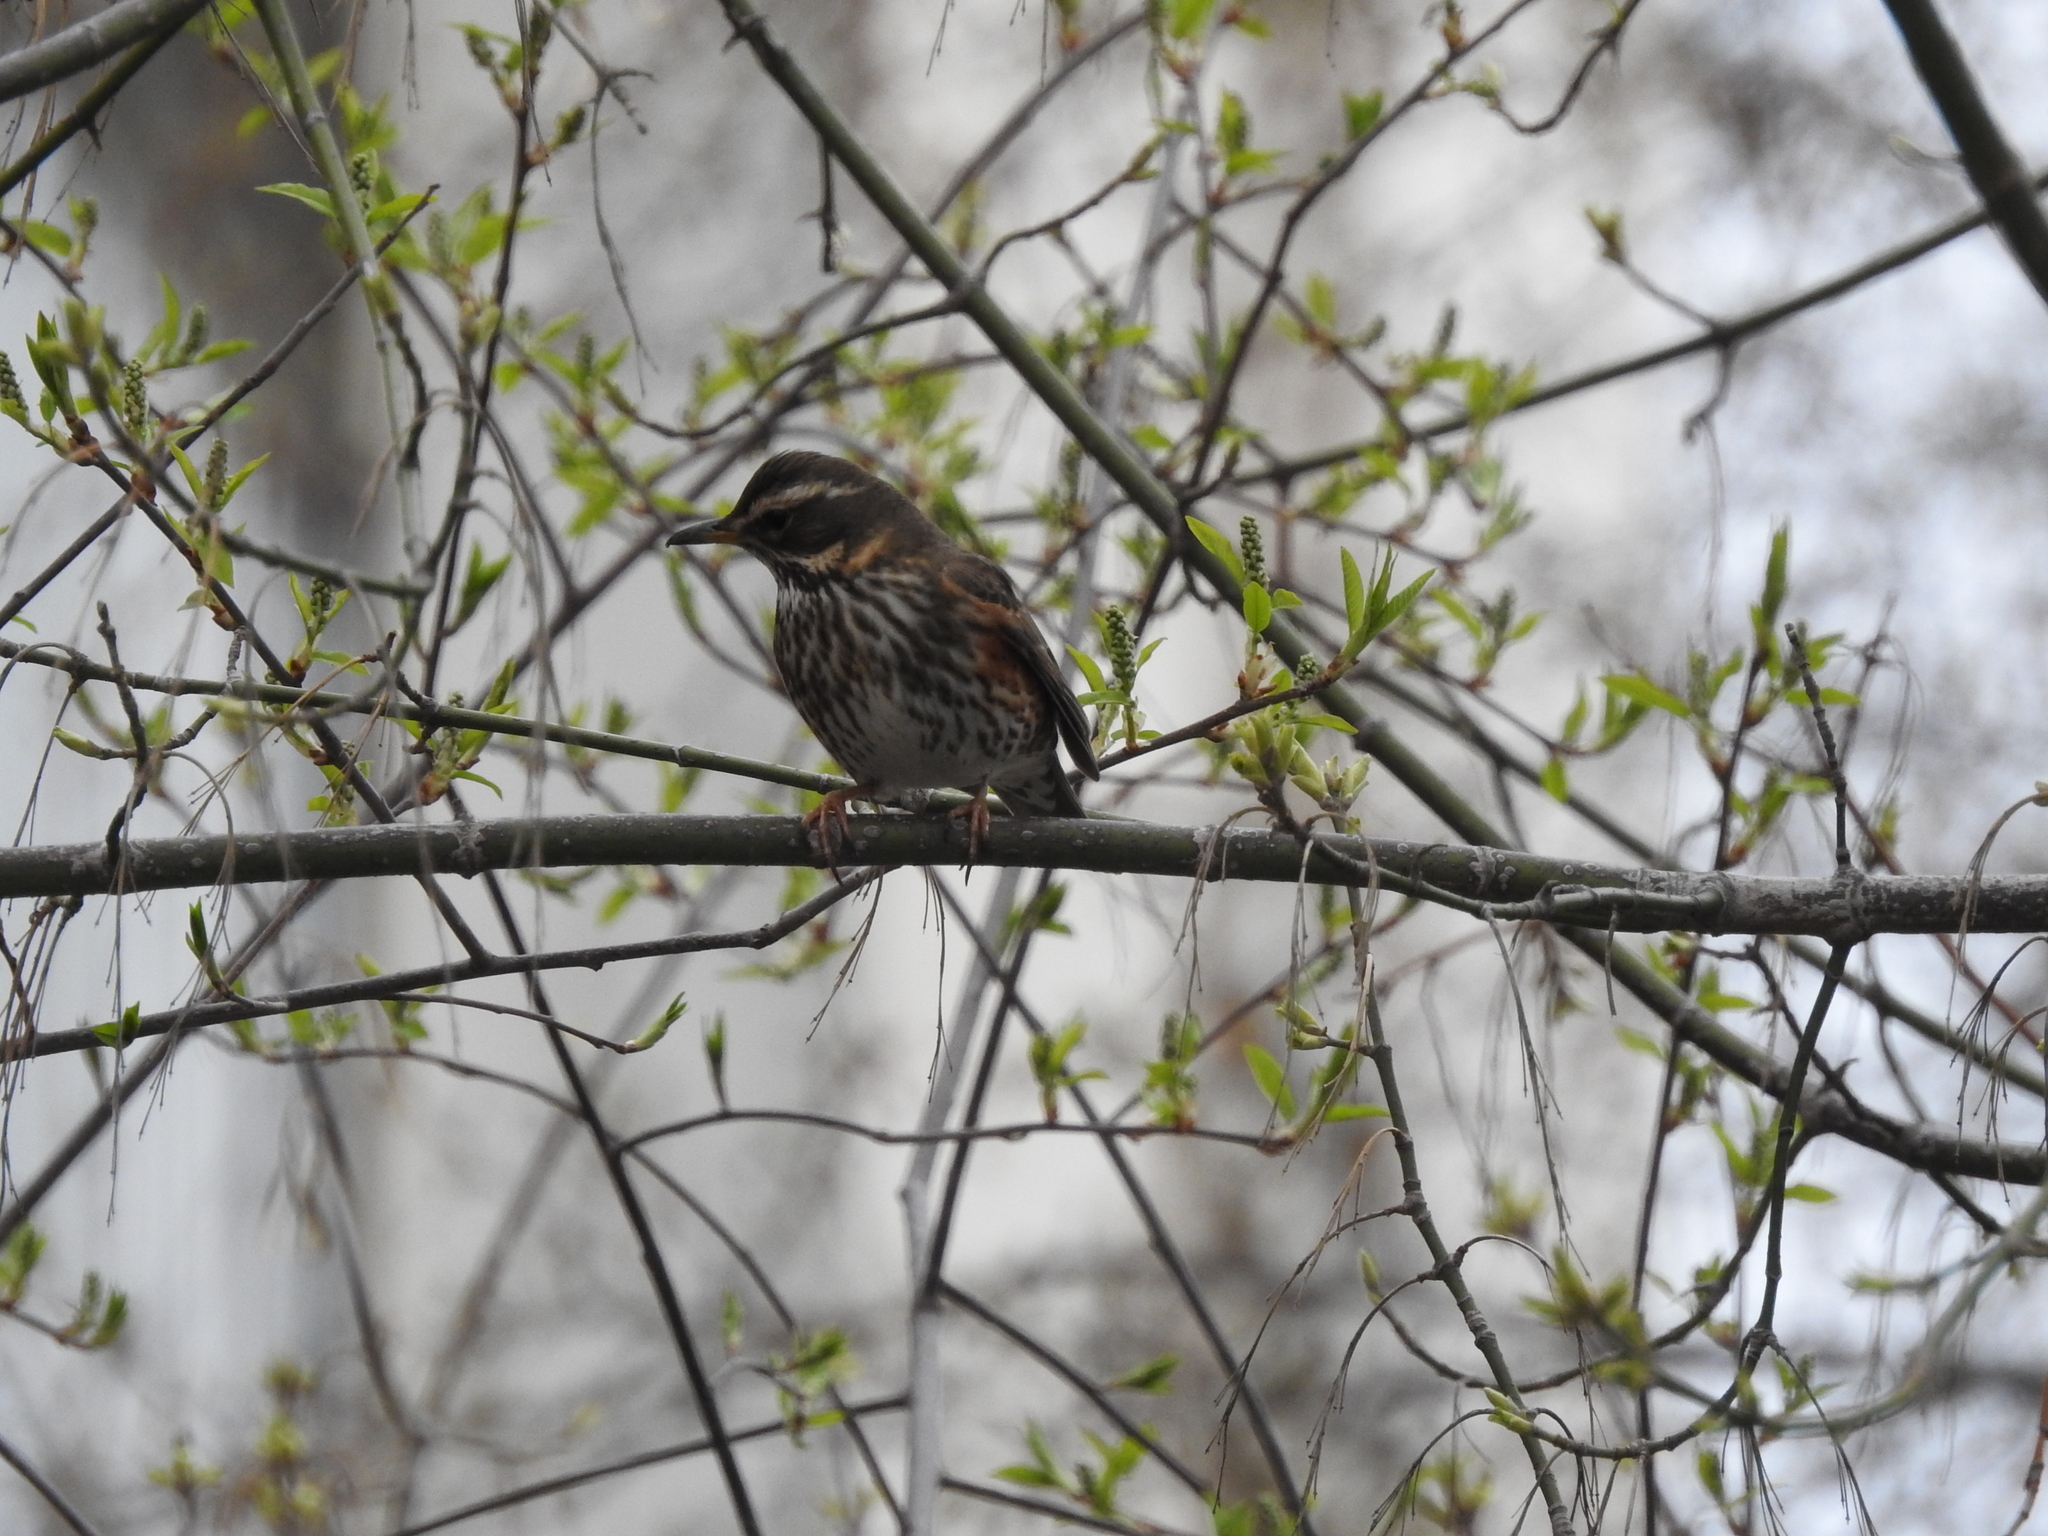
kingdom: Animalia
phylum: Chordata
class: Aves
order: Passeriformes
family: Turdidae
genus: Turdus
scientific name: Turdus iliacus
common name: Redwing
